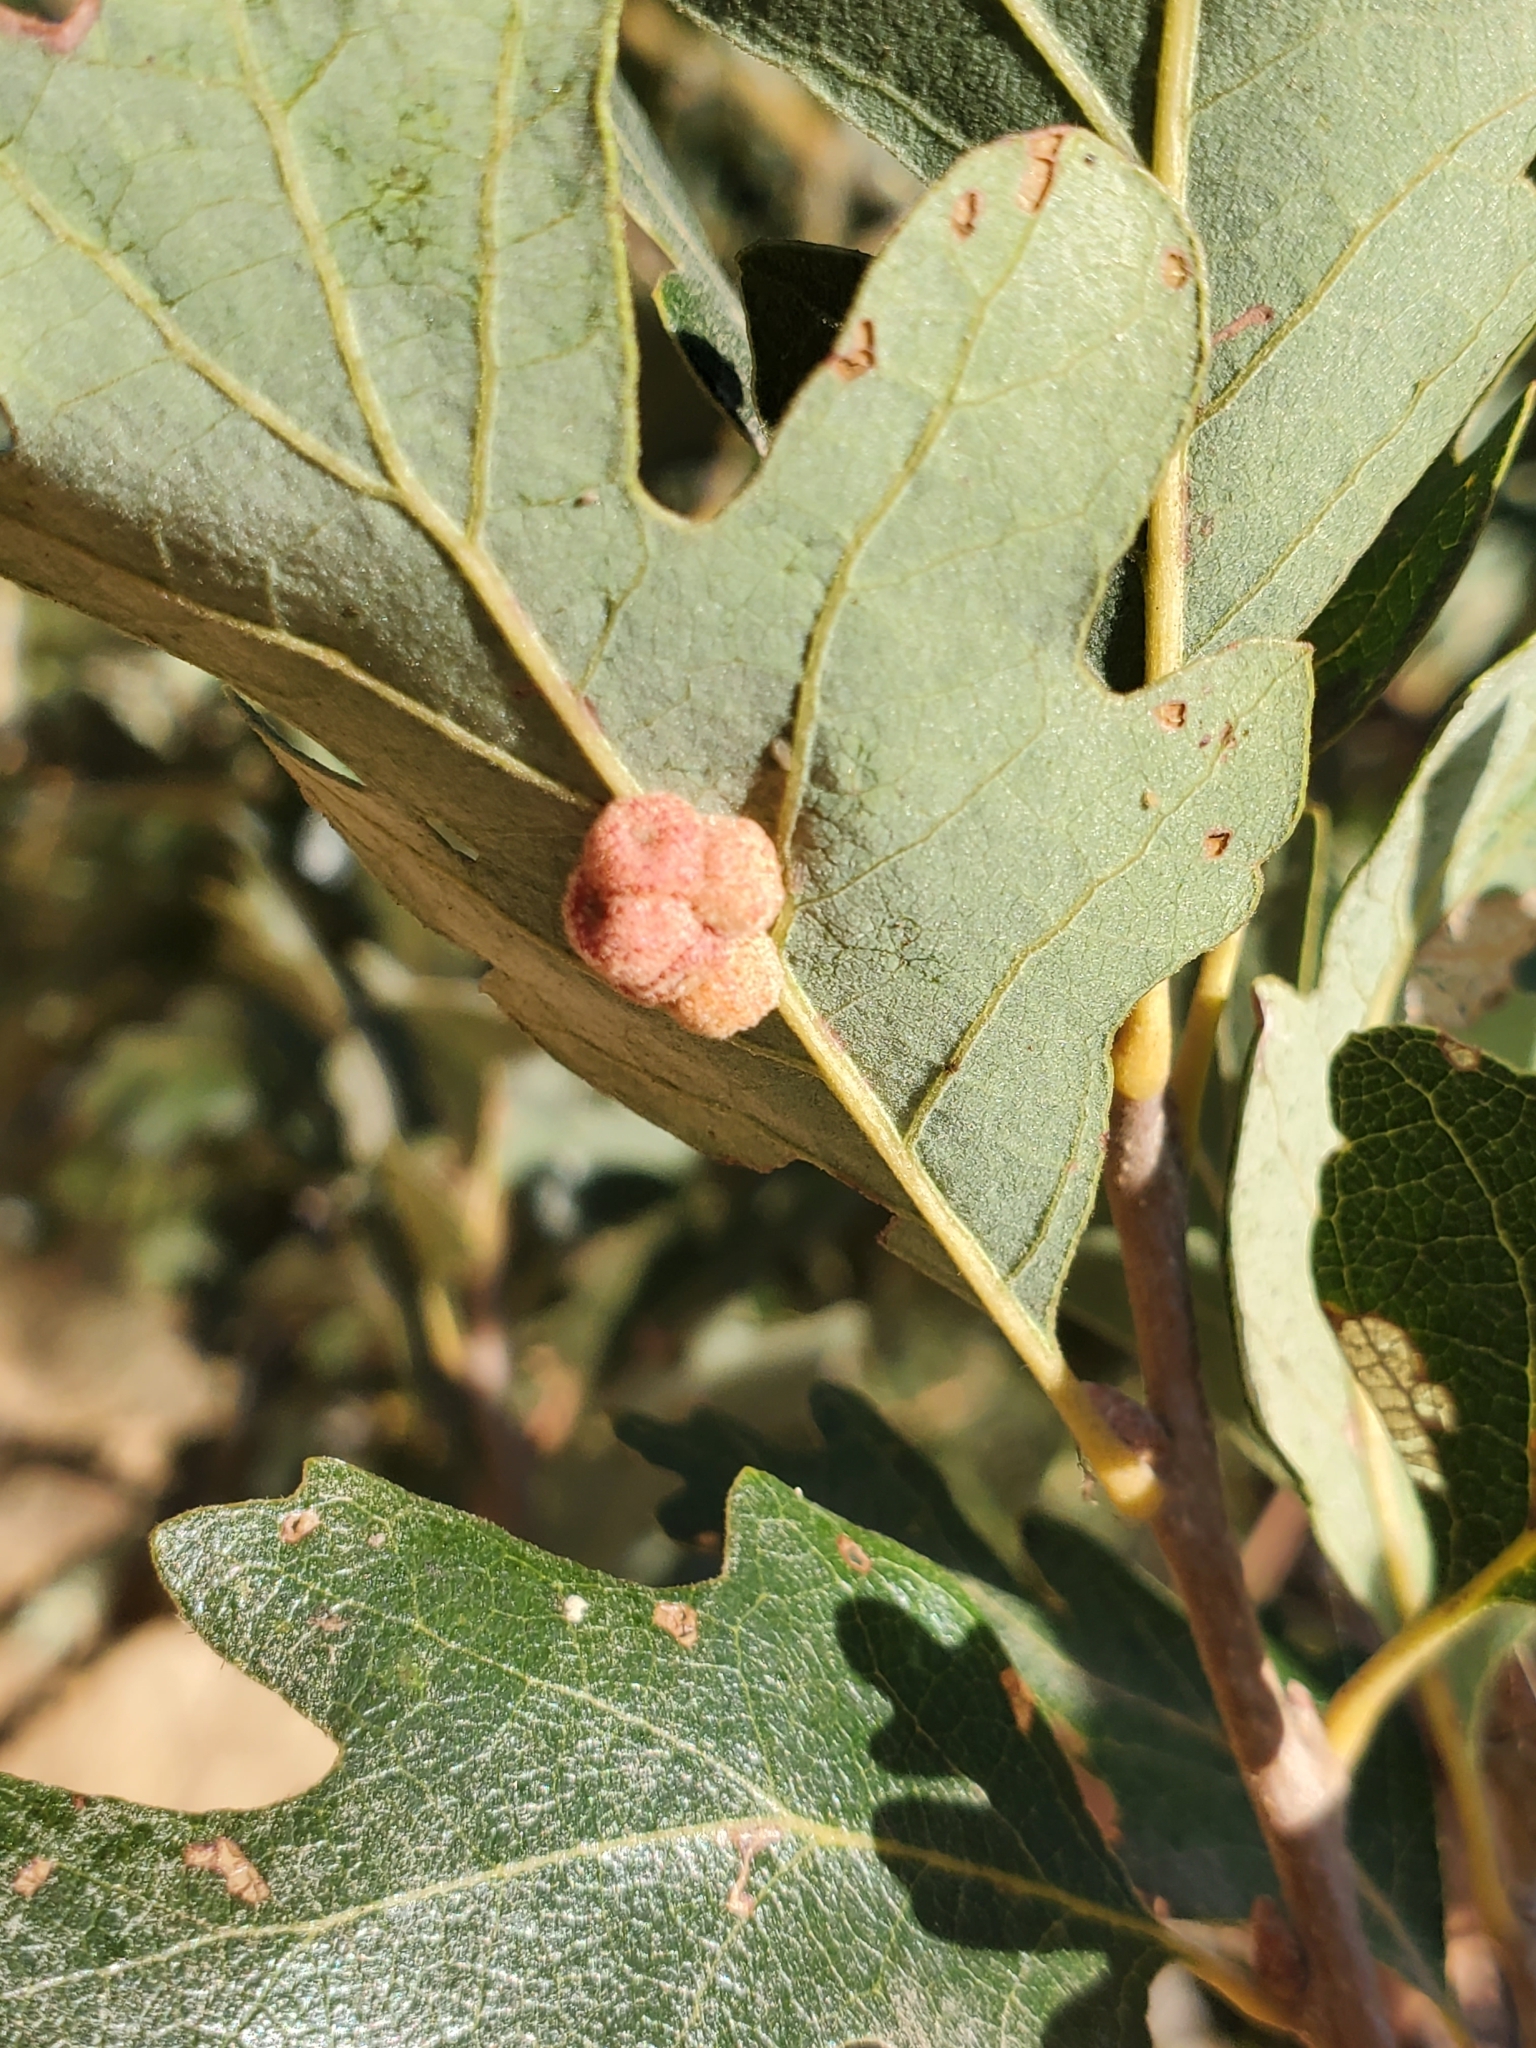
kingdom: Animalia
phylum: Arthropoda
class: Insecta
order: Hymenoptera
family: Cynipidae
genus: Andricus
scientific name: Andricus
